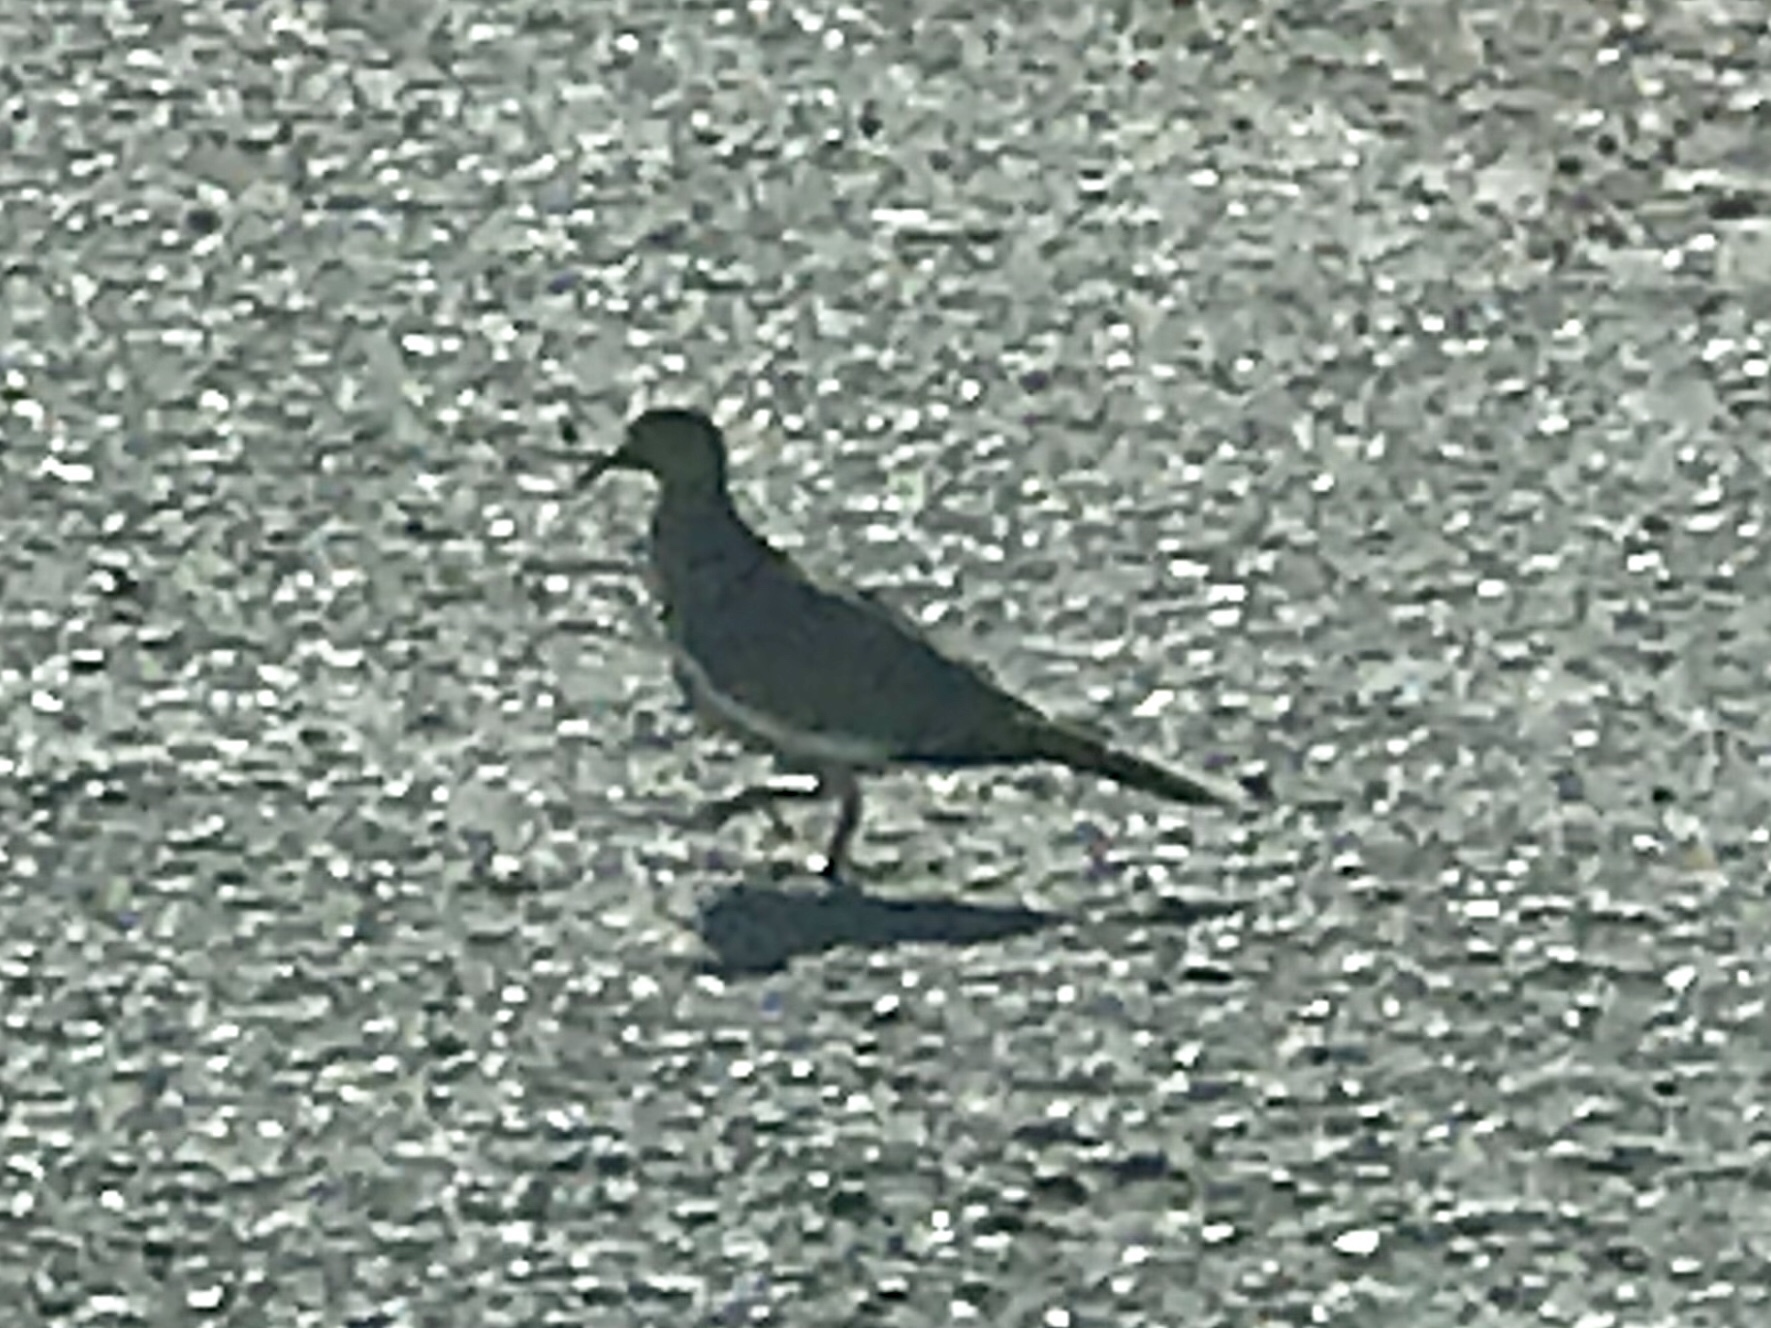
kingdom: Animalia
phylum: Chordata
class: Aves
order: Columbiformes
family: Columbidae
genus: Zenaida
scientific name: Zenaida asiatica
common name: White-winged dove
